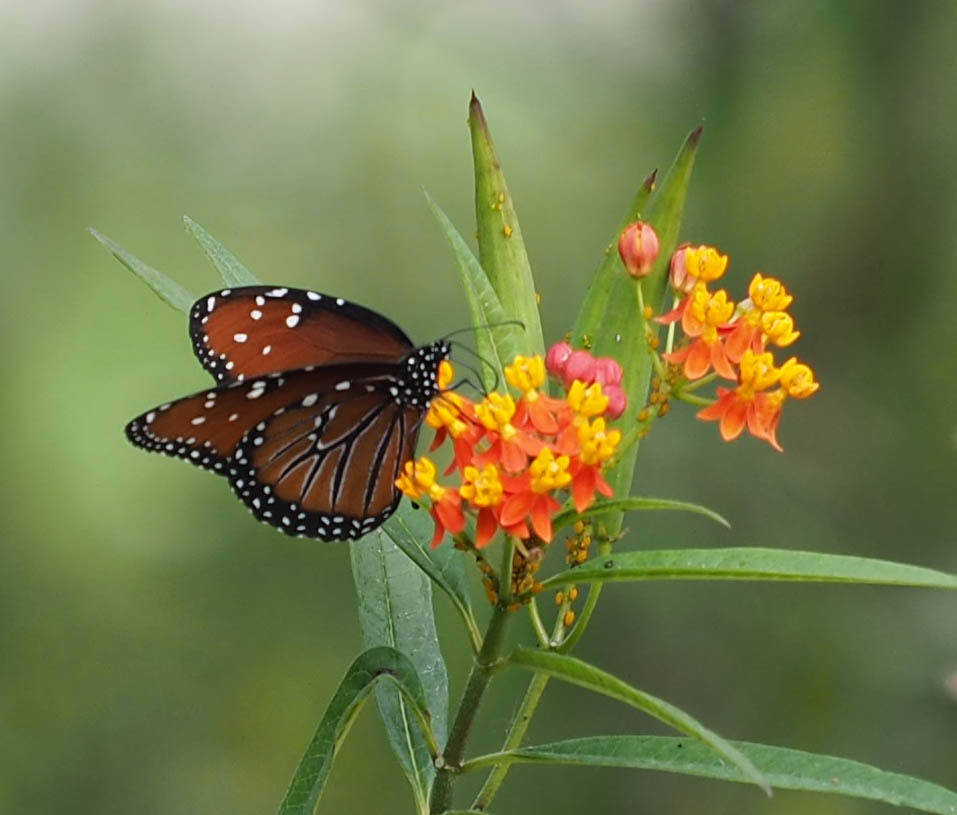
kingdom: Animalia
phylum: Arthropoda
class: Insecta
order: Lepidoptera
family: Nymphalidae
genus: Danaus
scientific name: Danaus gilippus
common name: Queen
